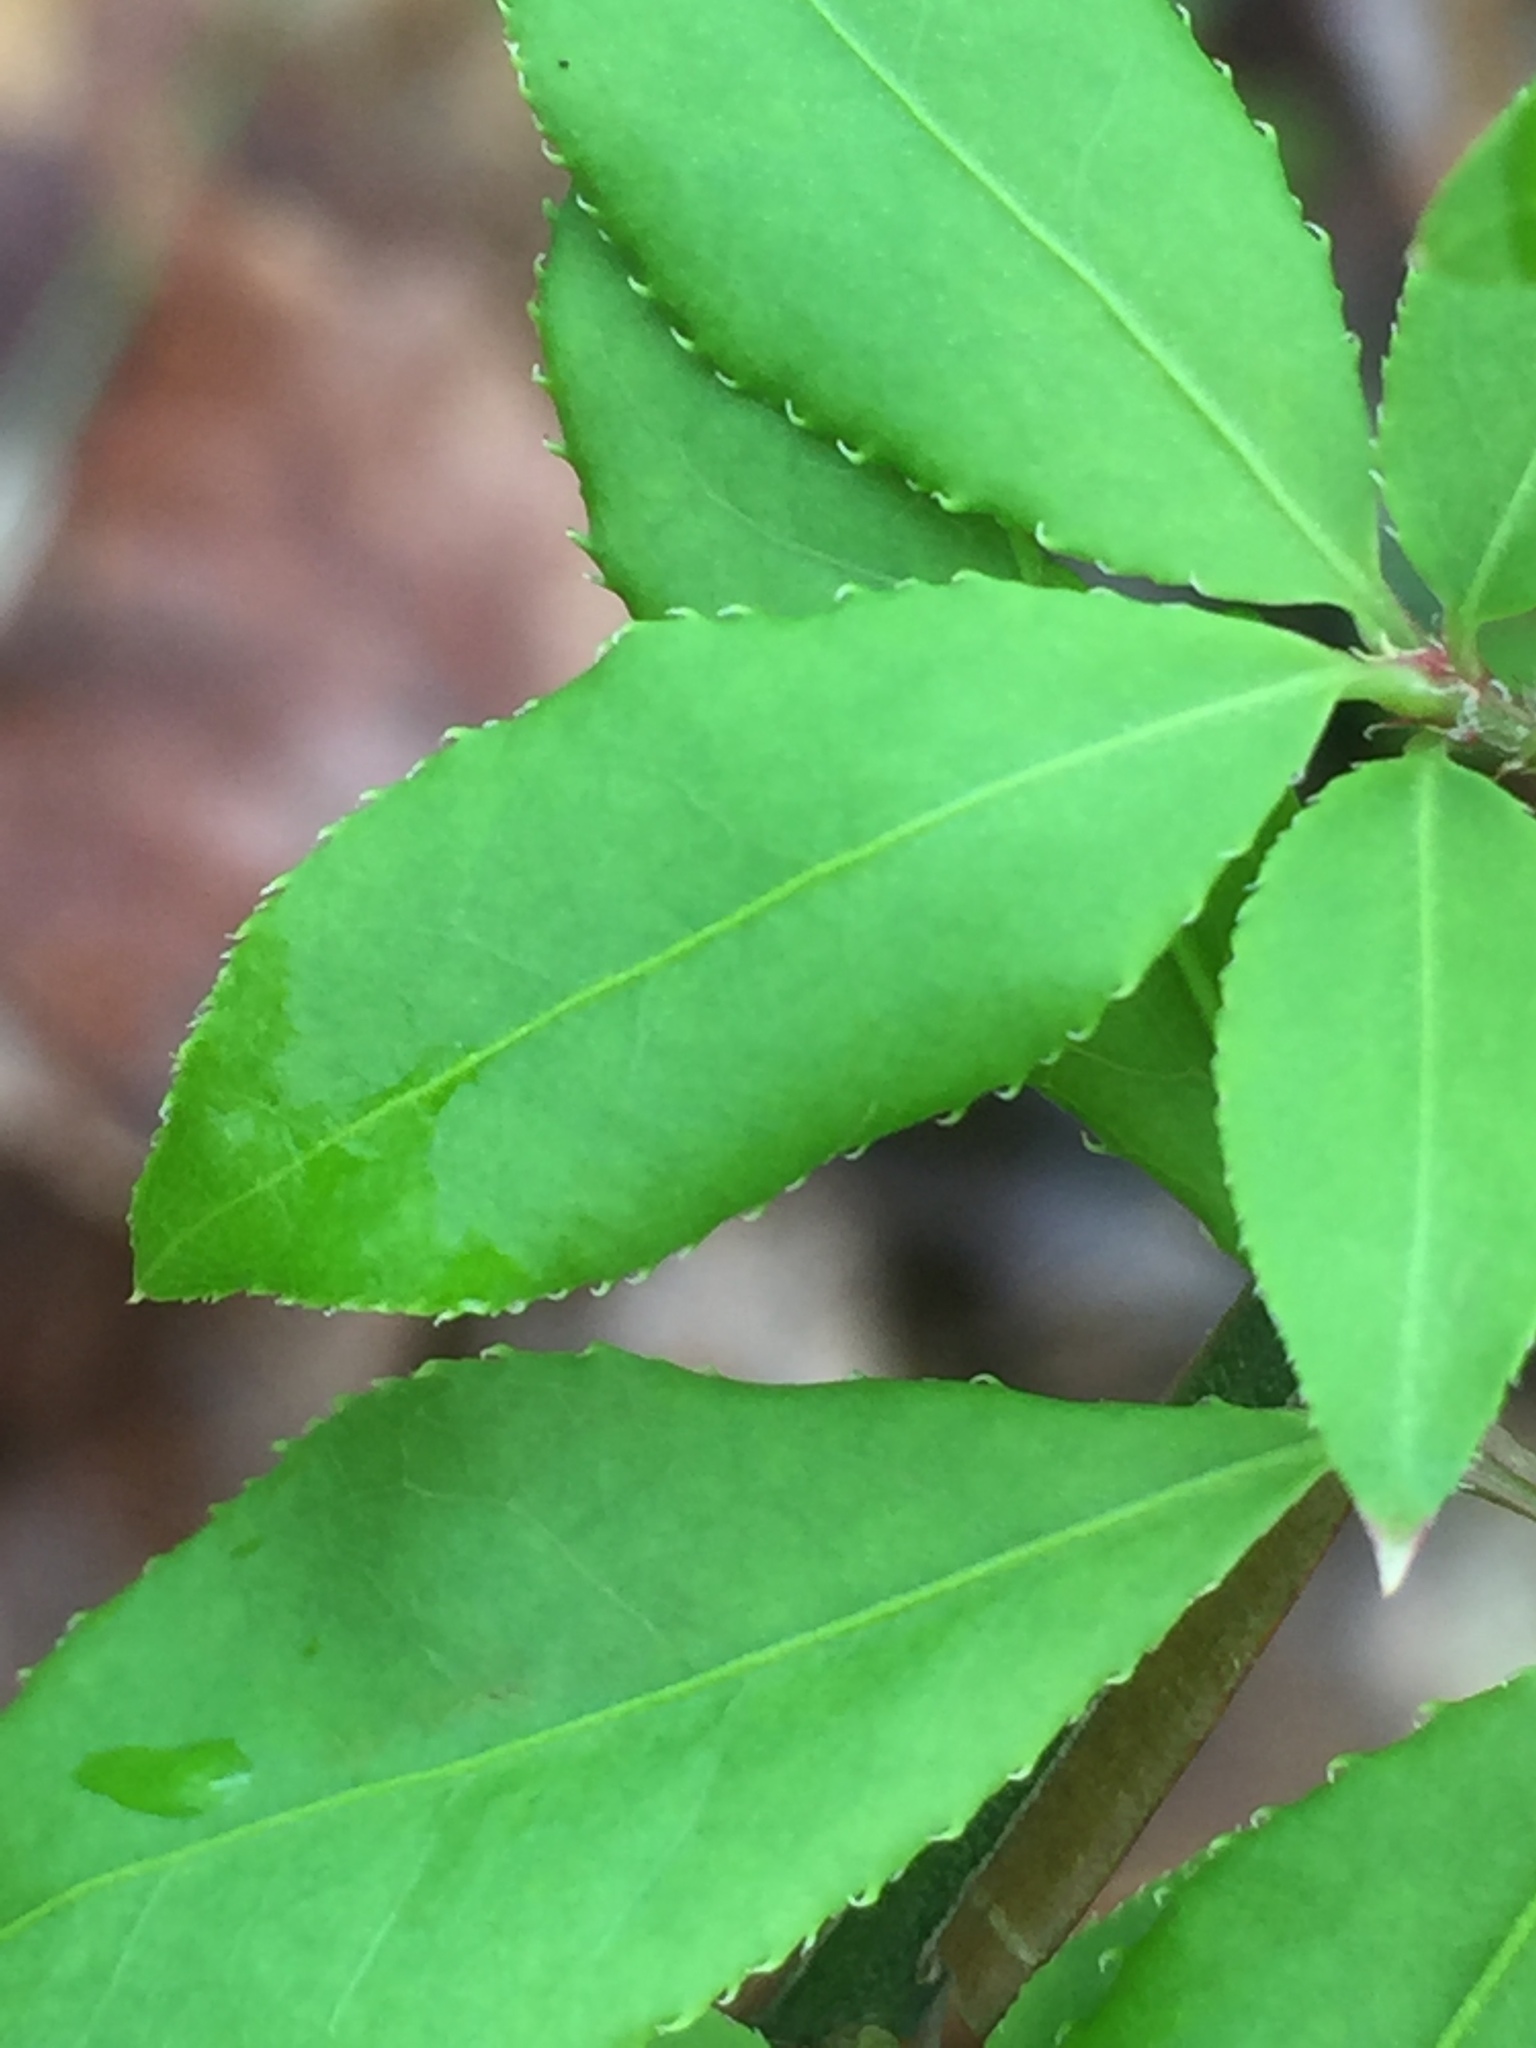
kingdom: Plantae
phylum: Tracheophyta
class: Magnoliopsida
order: Celastrales
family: Celastraceae
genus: Euonymus
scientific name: Euonymus alatus
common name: Winged euonymus
